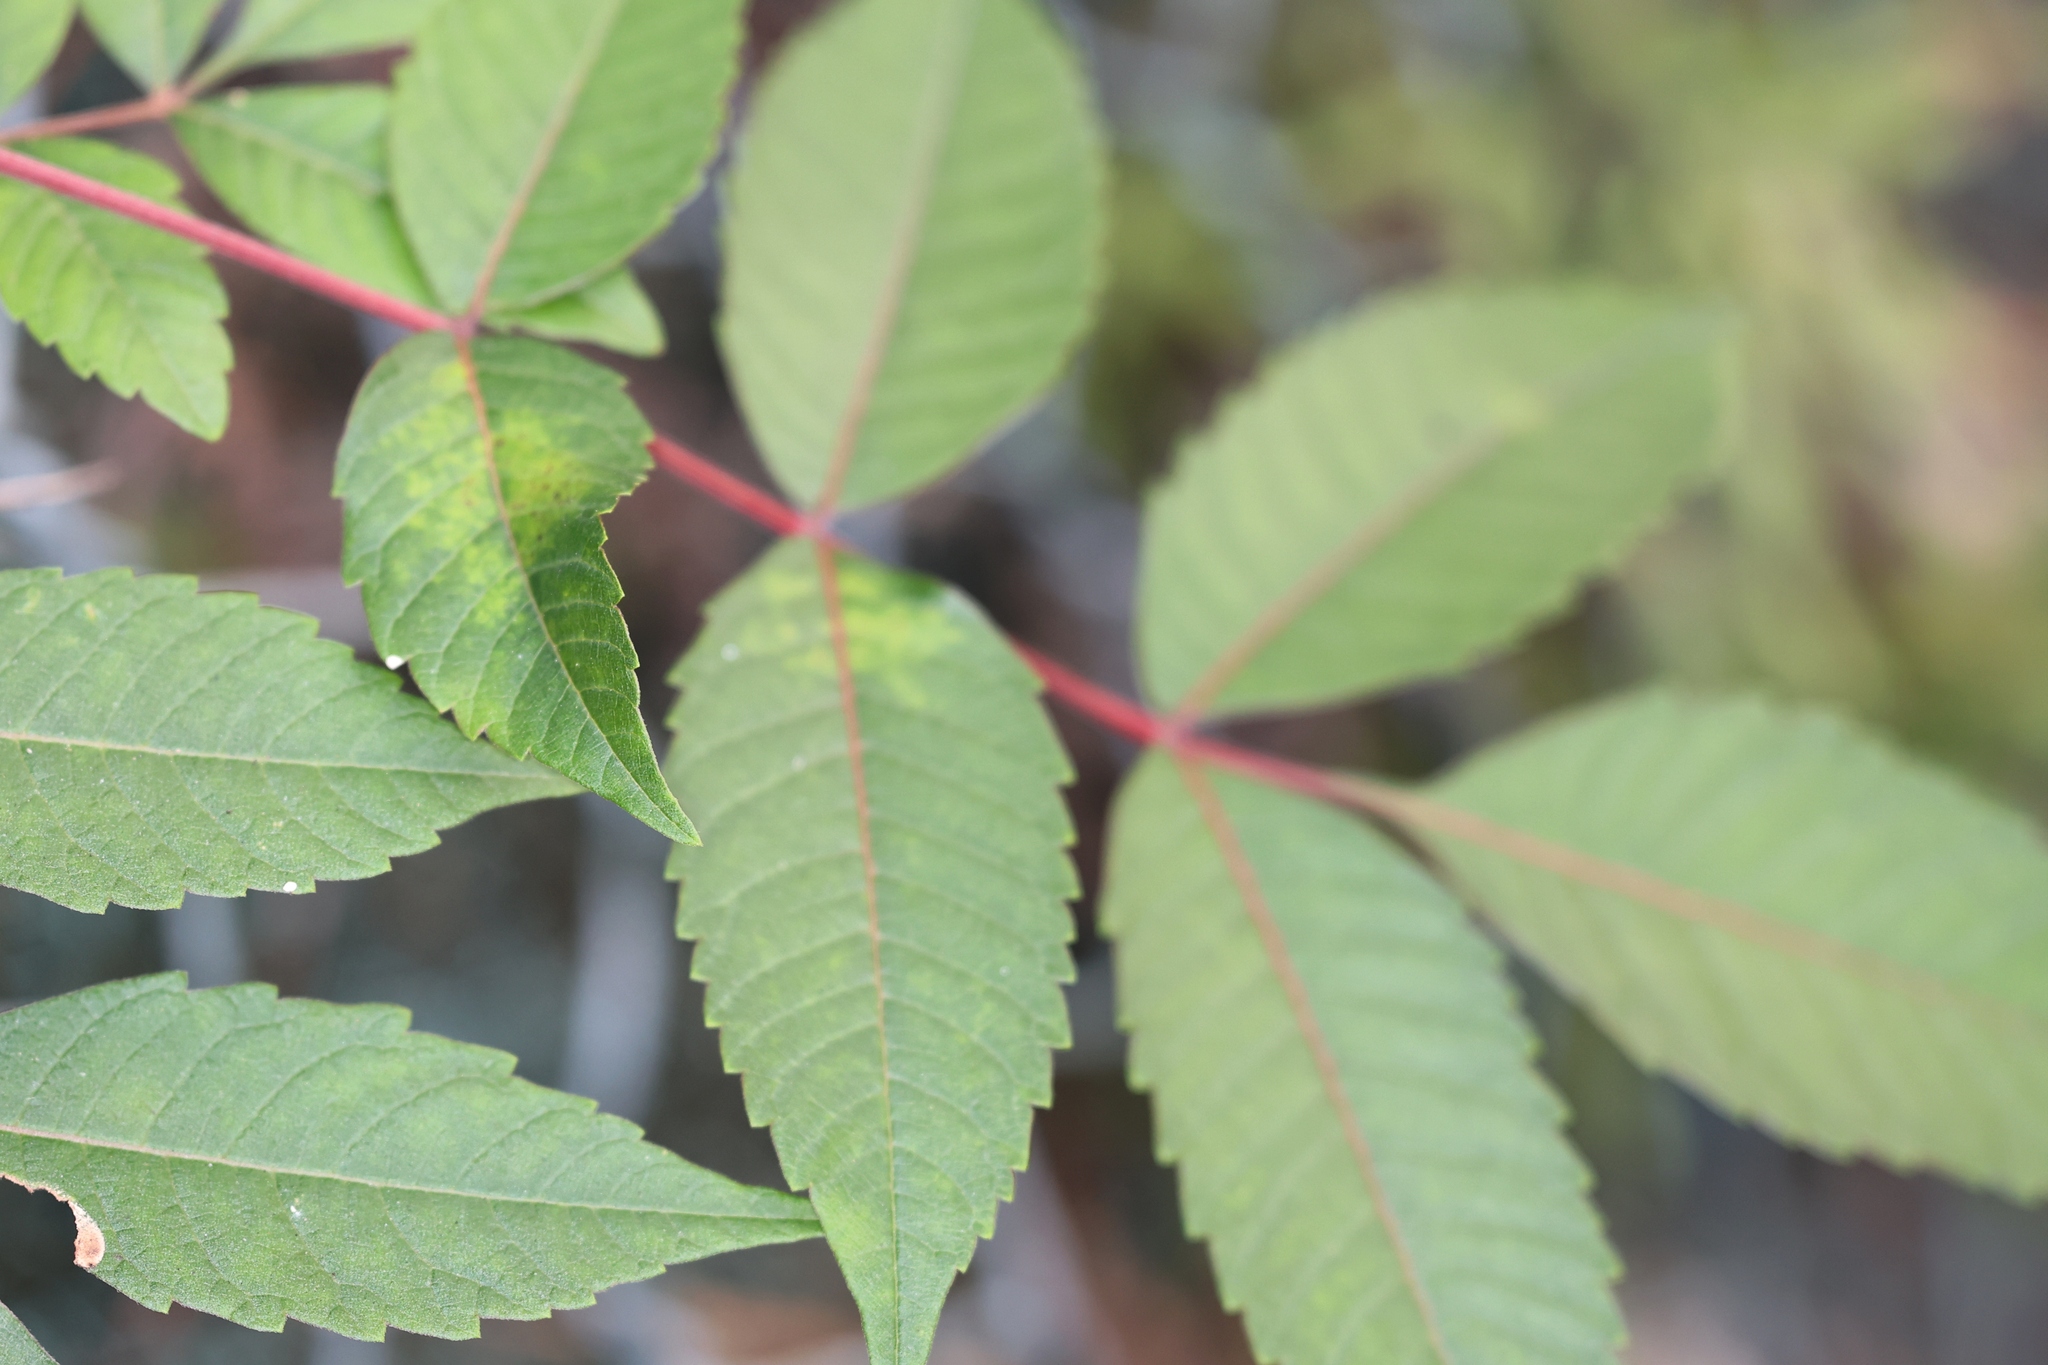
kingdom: Plantae
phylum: Tracheophyta
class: Magnoliopsida
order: Sapindales
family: Anacardiaceae
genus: Rhus
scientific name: Rhus hypoleuca
